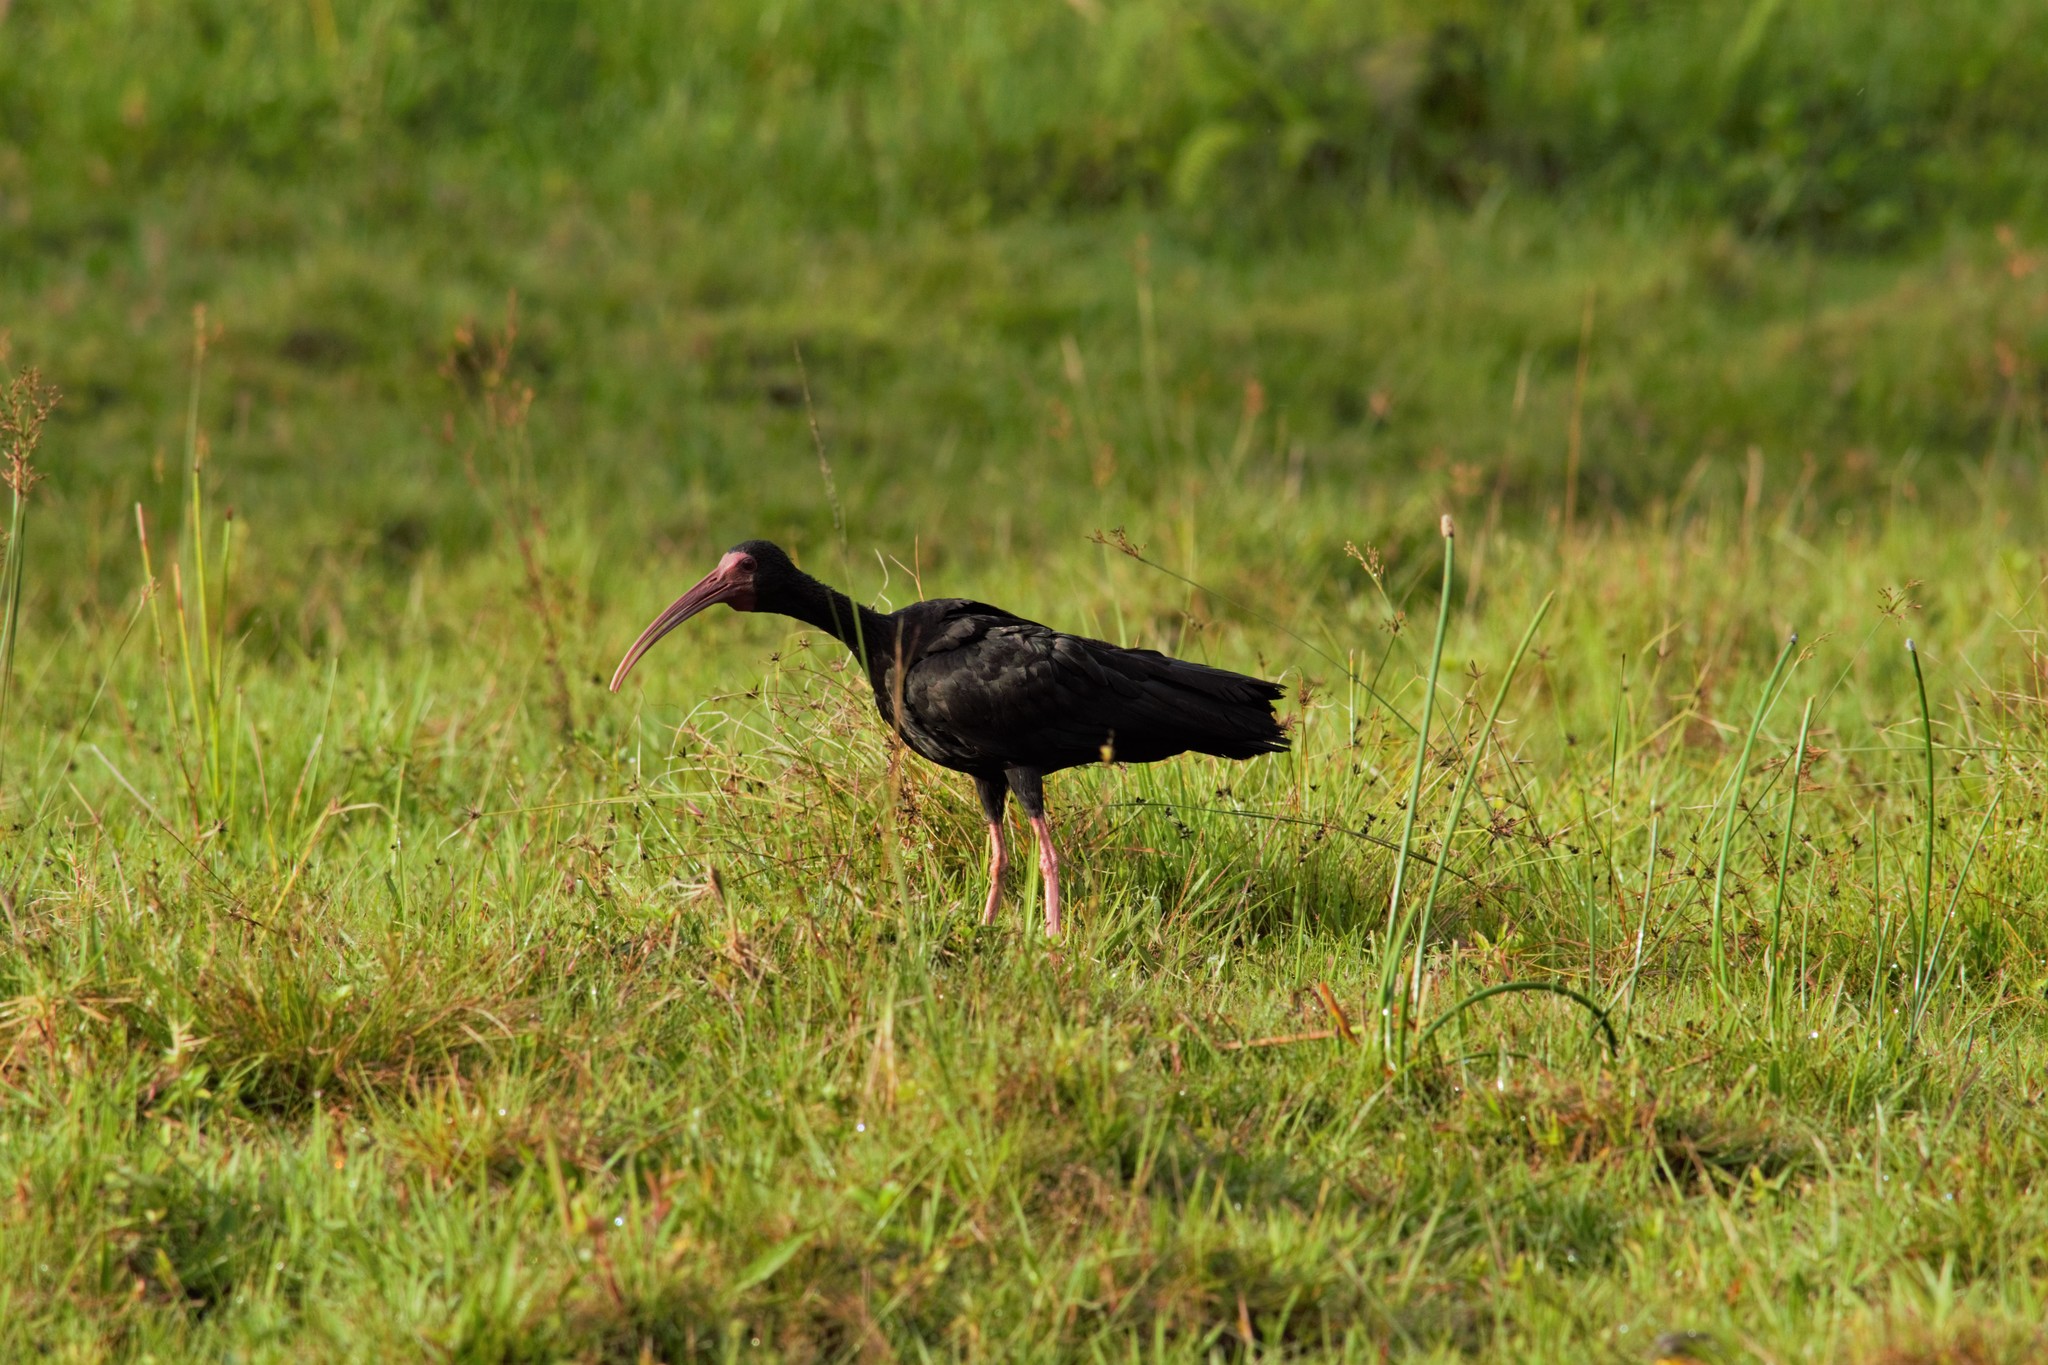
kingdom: Animalia
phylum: Chordata
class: Aves
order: Pelecaniformes
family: Threskiornithidae
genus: Phimosus
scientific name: Phimosus infuscatus
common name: Bare-faced ibis
